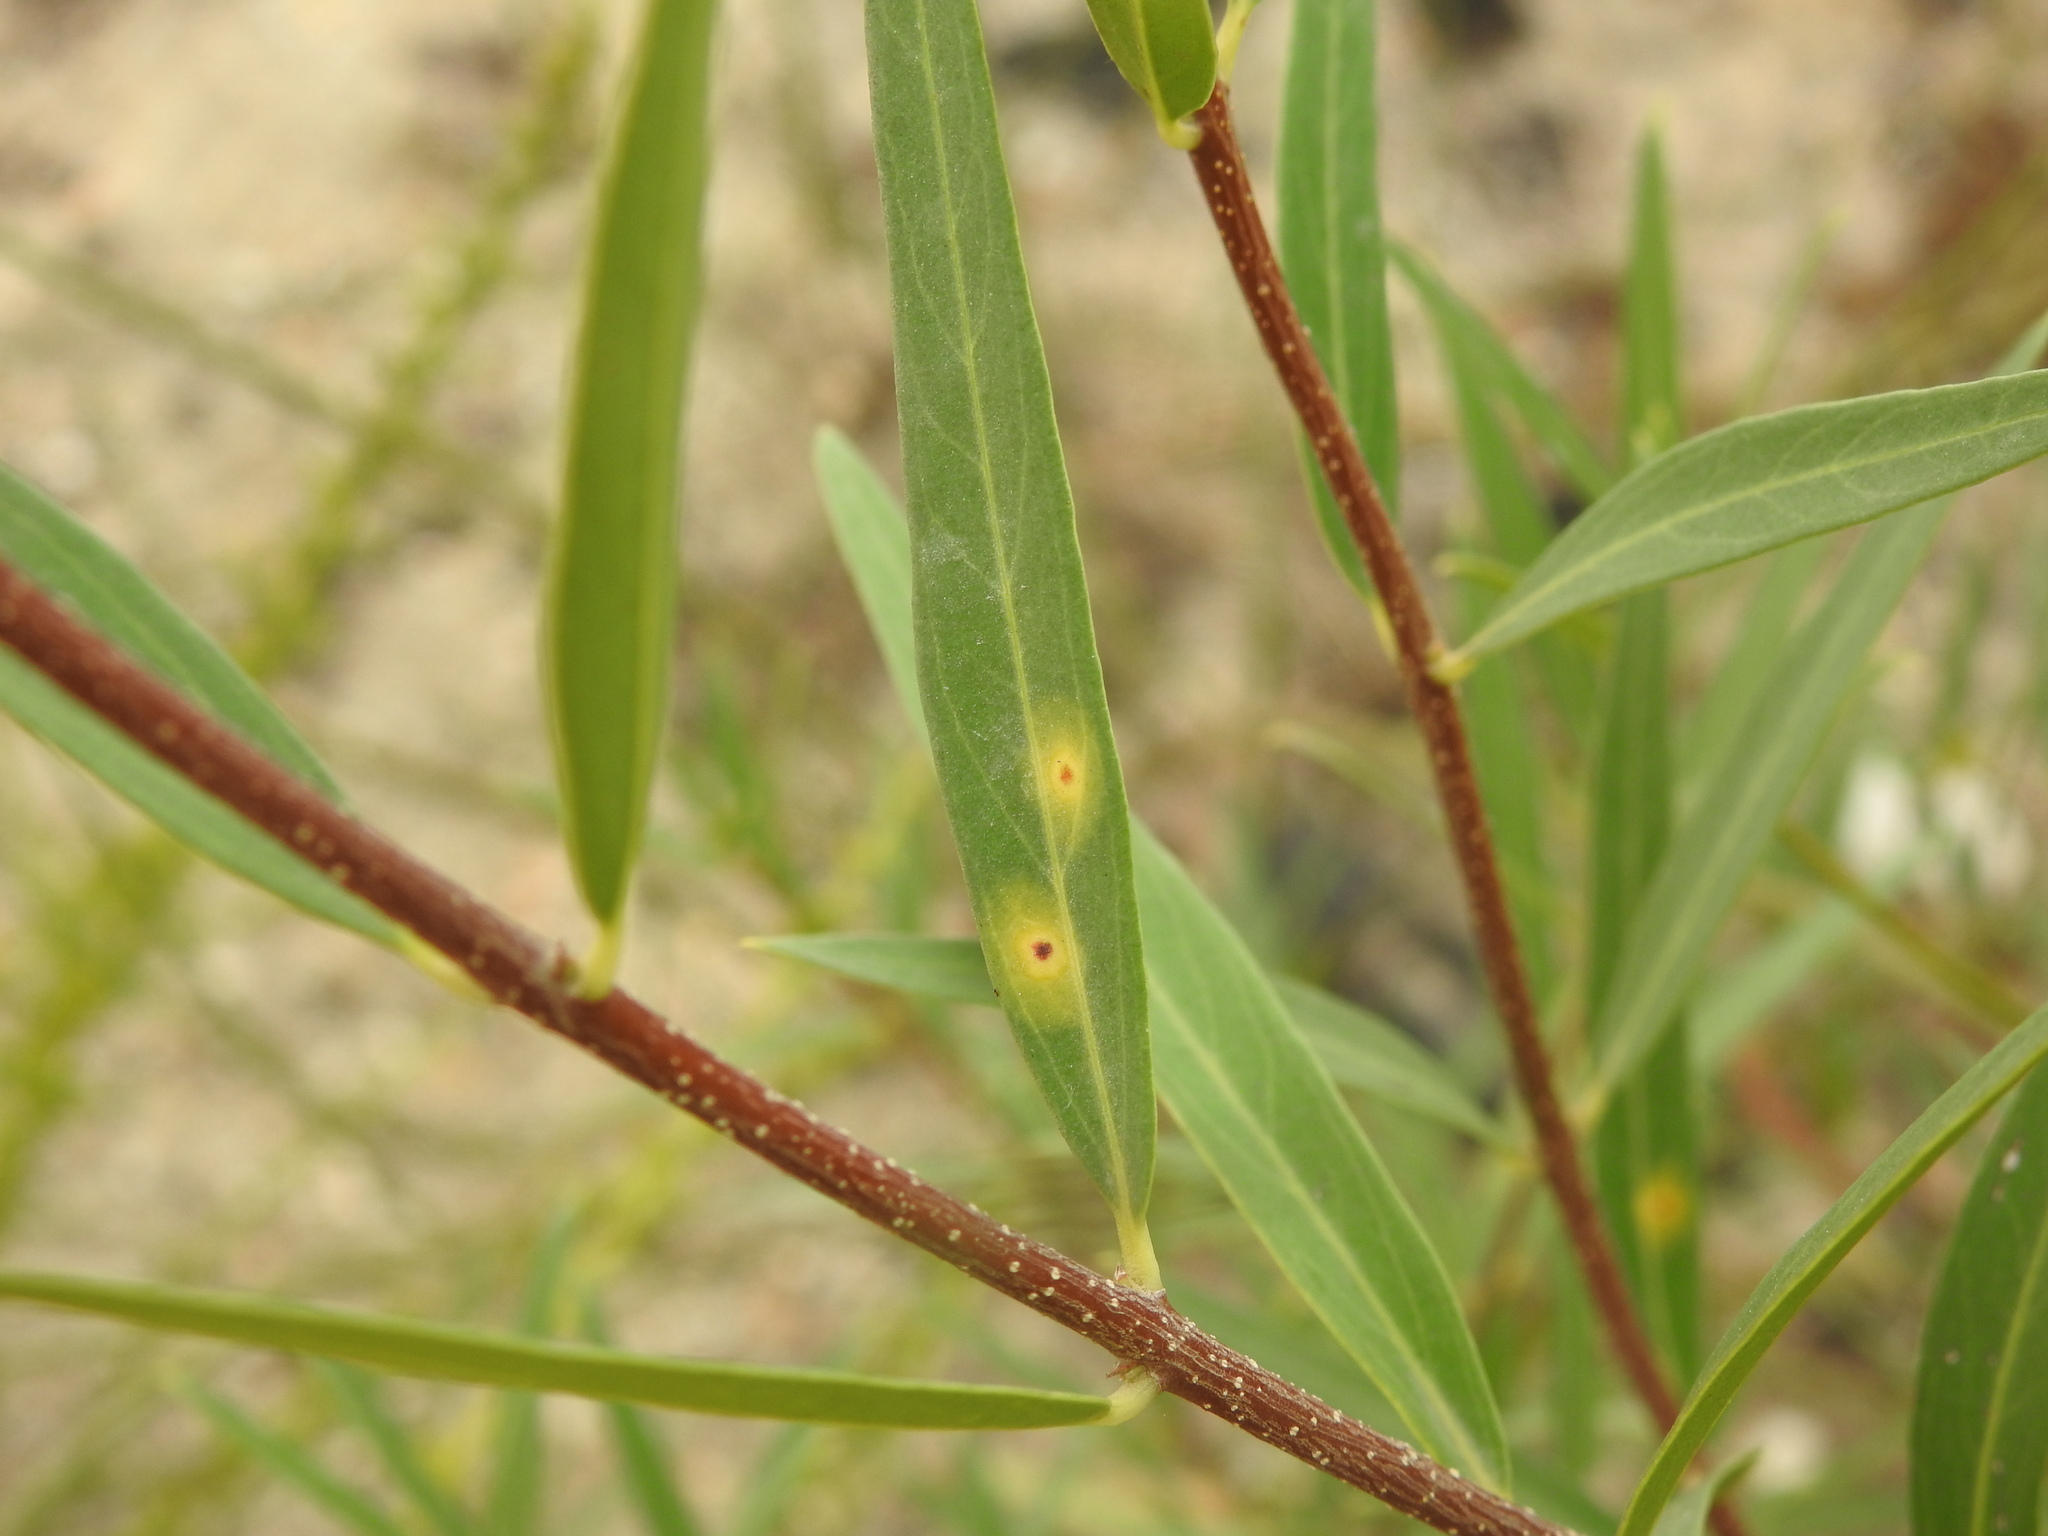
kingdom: Animalia
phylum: Arthropoda
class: Insecta
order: Diptera
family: Cecidomyiidae
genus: Braueriella
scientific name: Braueriella phillyreae
